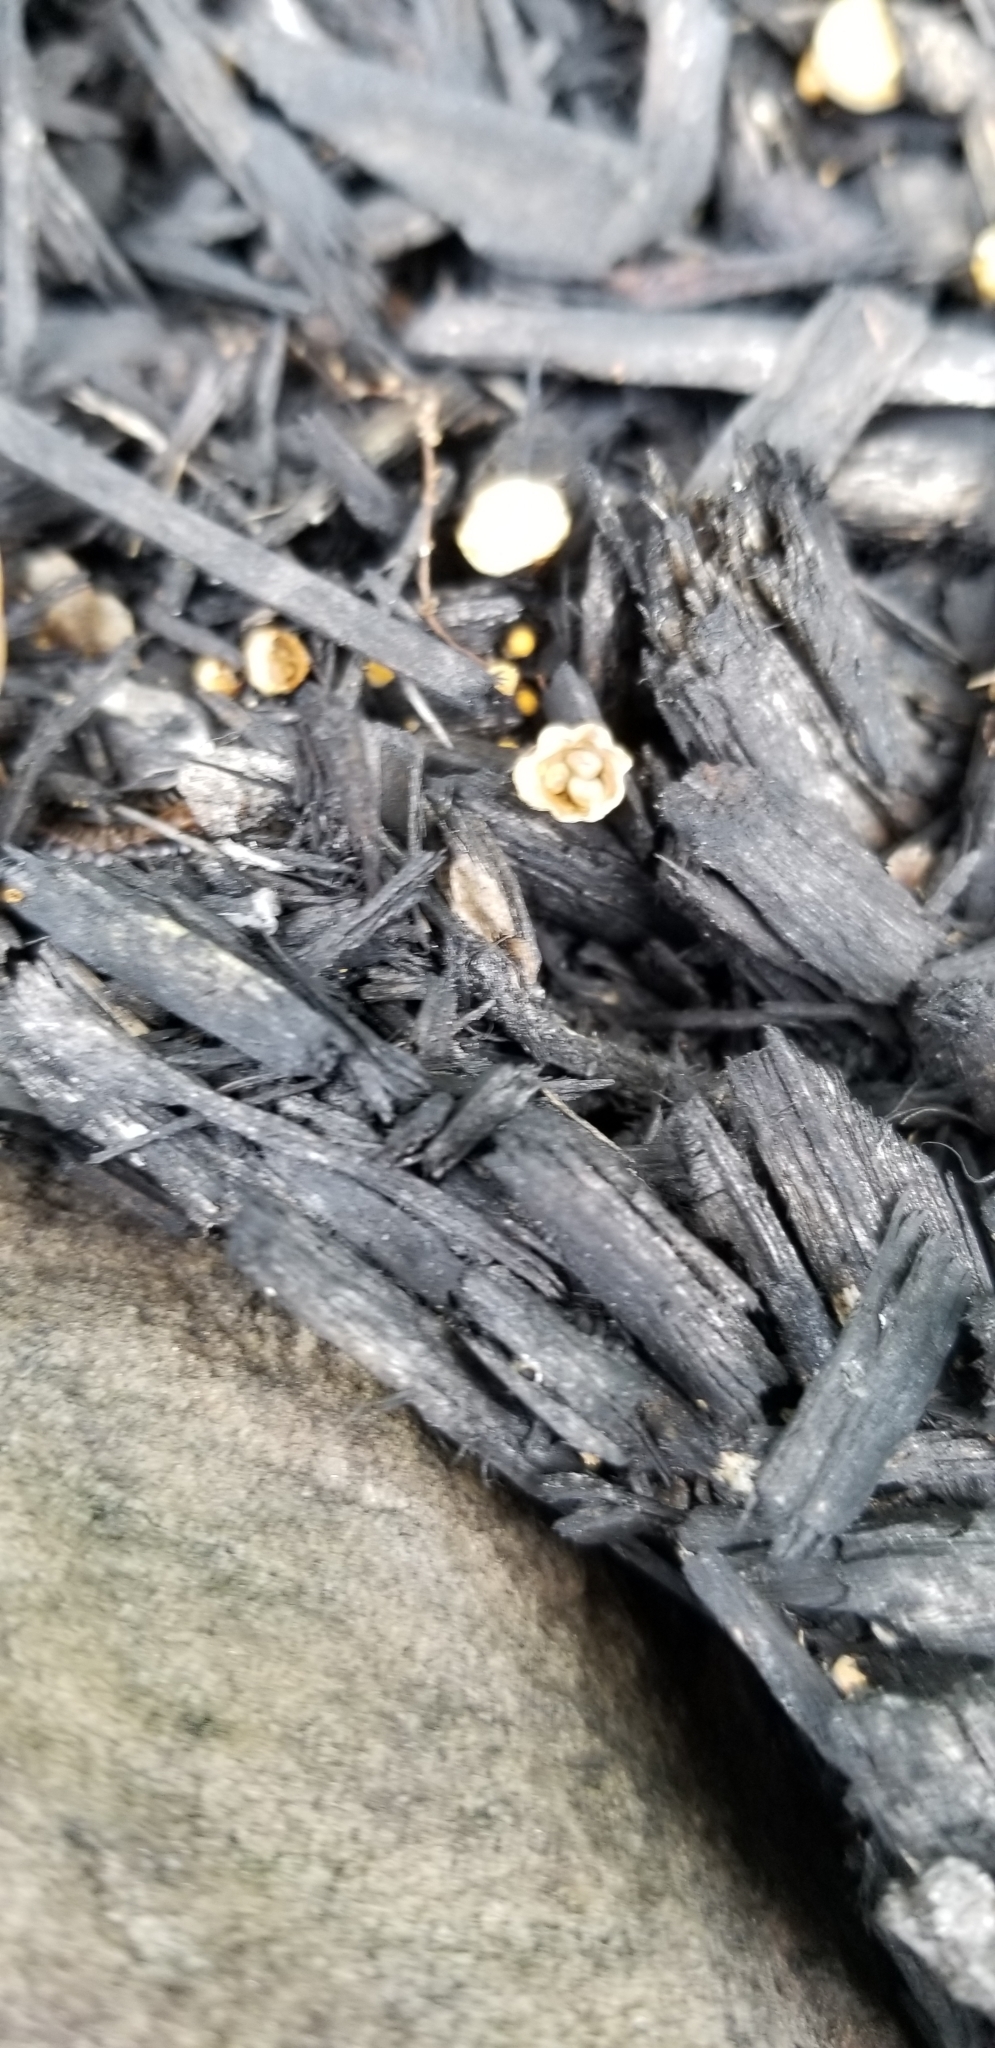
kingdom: Fungi
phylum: Basidiomycota
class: Agaricomycetes
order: Agaricales
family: Nidulariaceae
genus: Crucibulum
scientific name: Crucibulum laeve
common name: Common bird's nest
